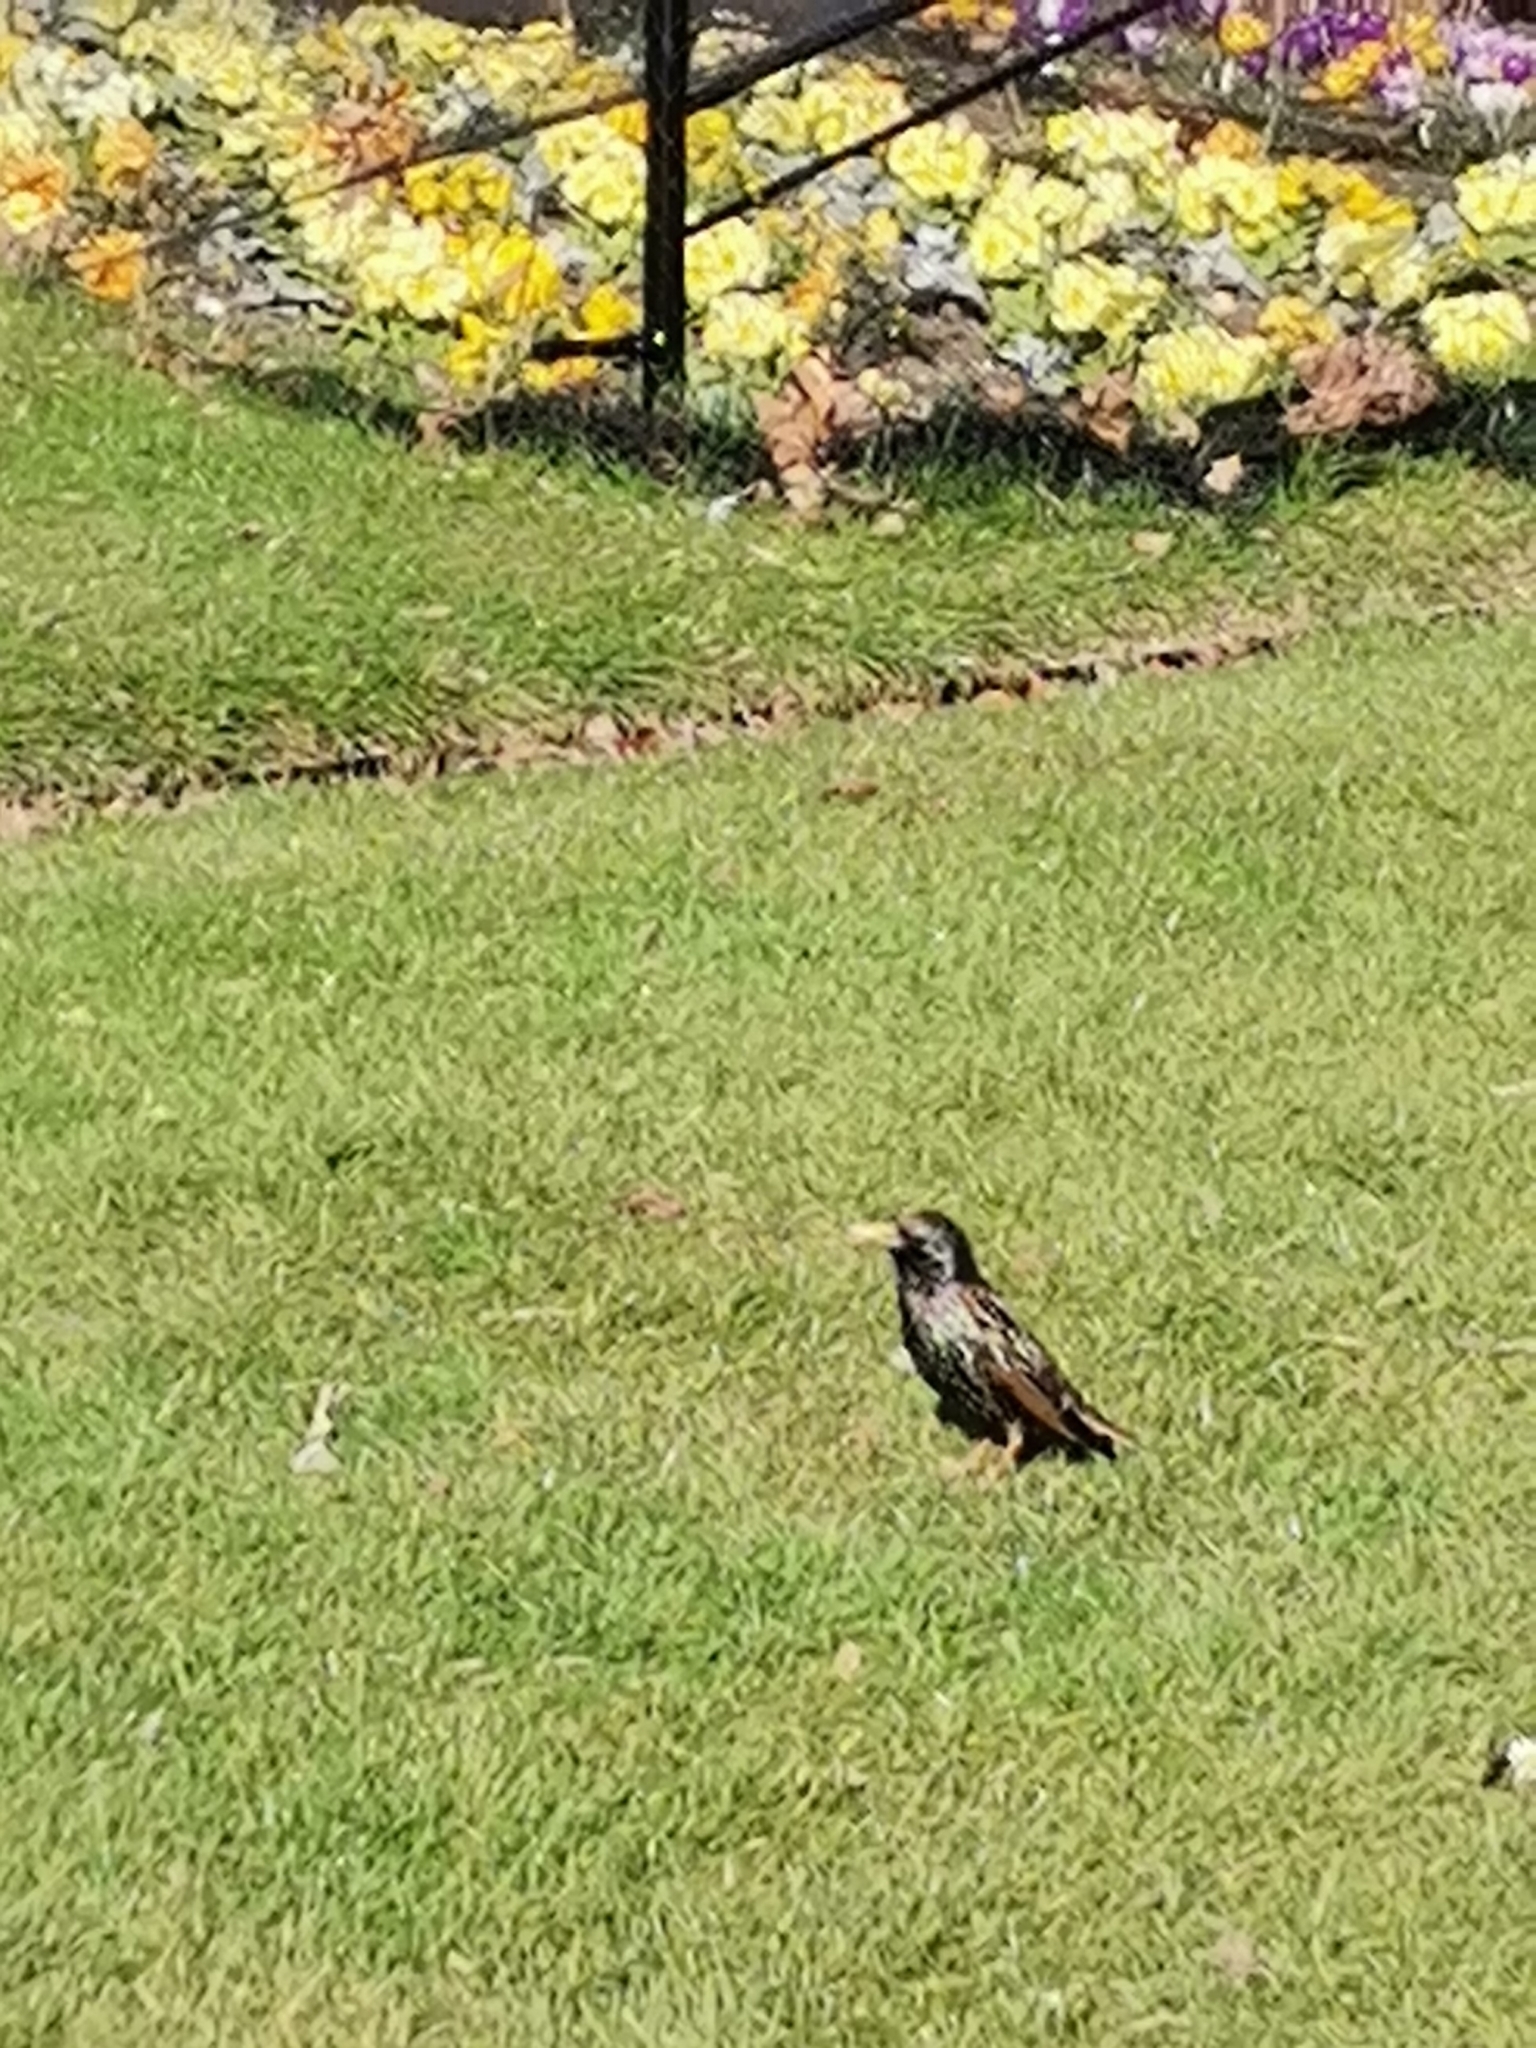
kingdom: Animalia
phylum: Chordata
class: Aves
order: Passeriformes
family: Sturnidae
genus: Sturnus
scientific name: Sturnus vulgaris
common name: Common starling
